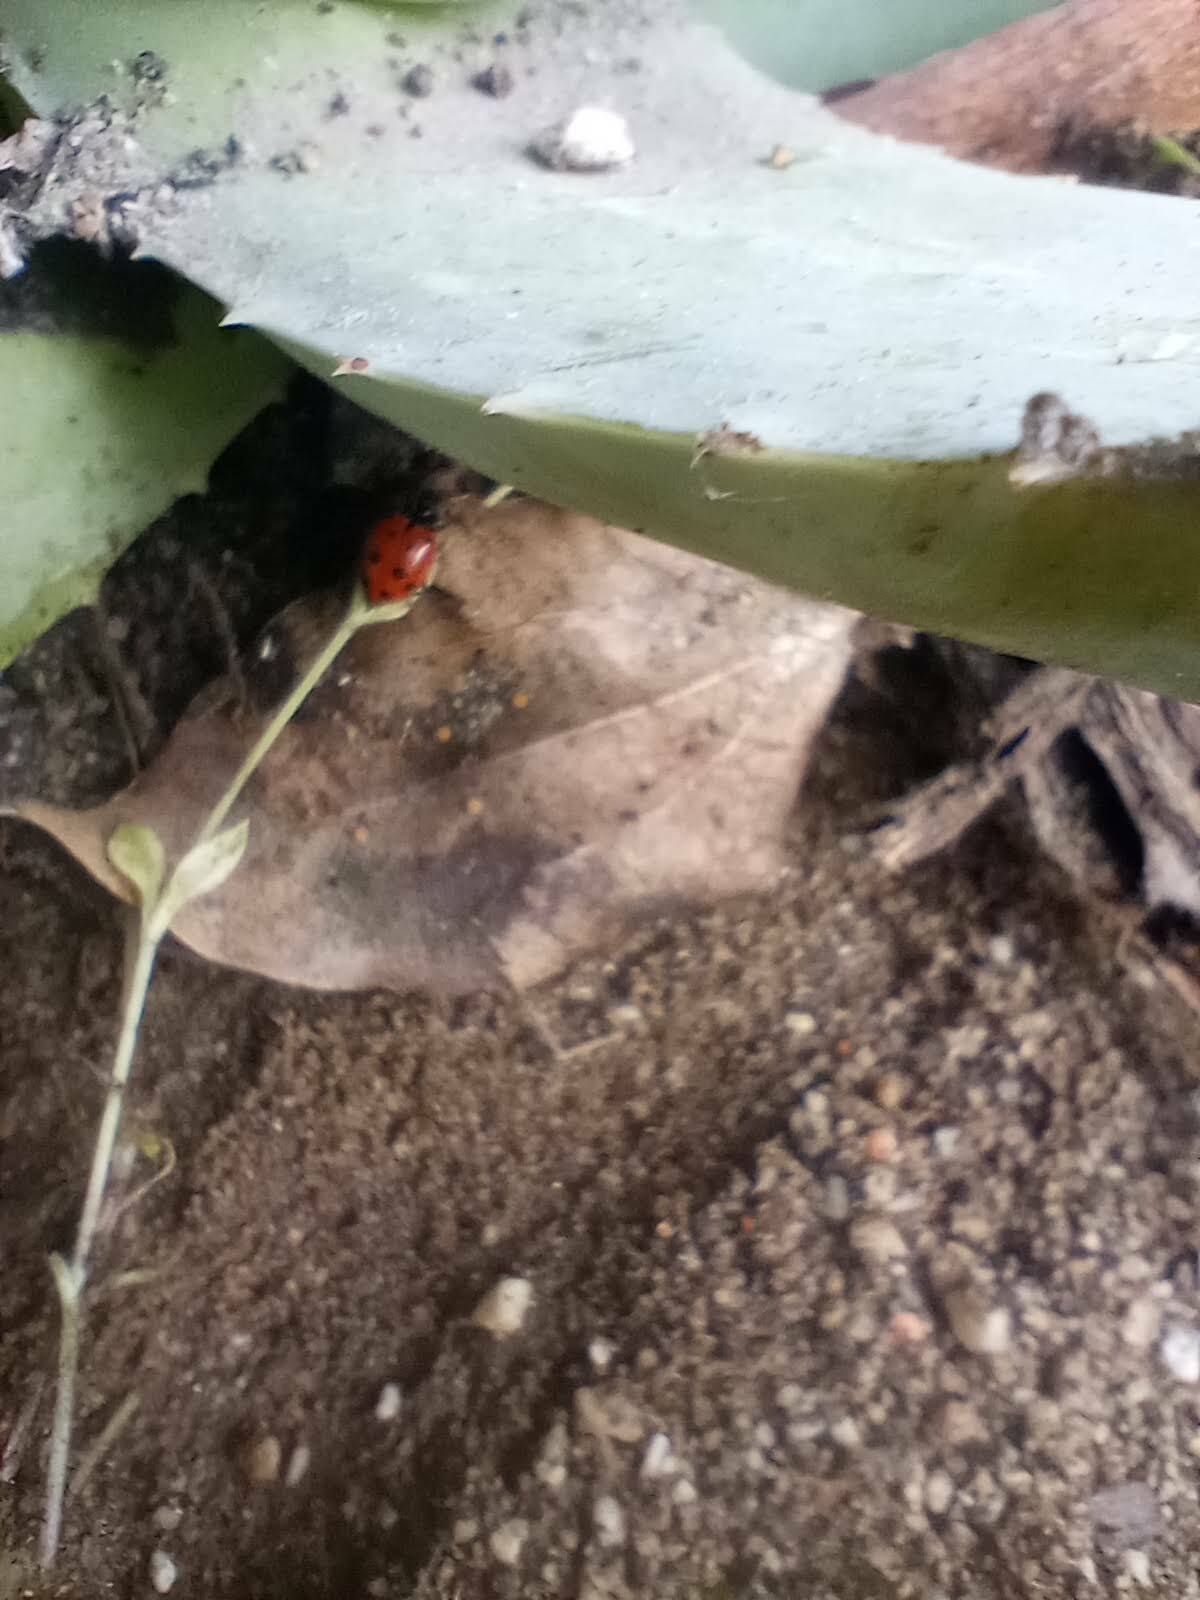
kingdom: Animalia
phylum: Arthropoda
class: Insecta
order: Coleoptera
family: Coccinellidae
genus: Hippodamia
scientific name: Hippodamia convergens
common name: Convergent lady beetle
